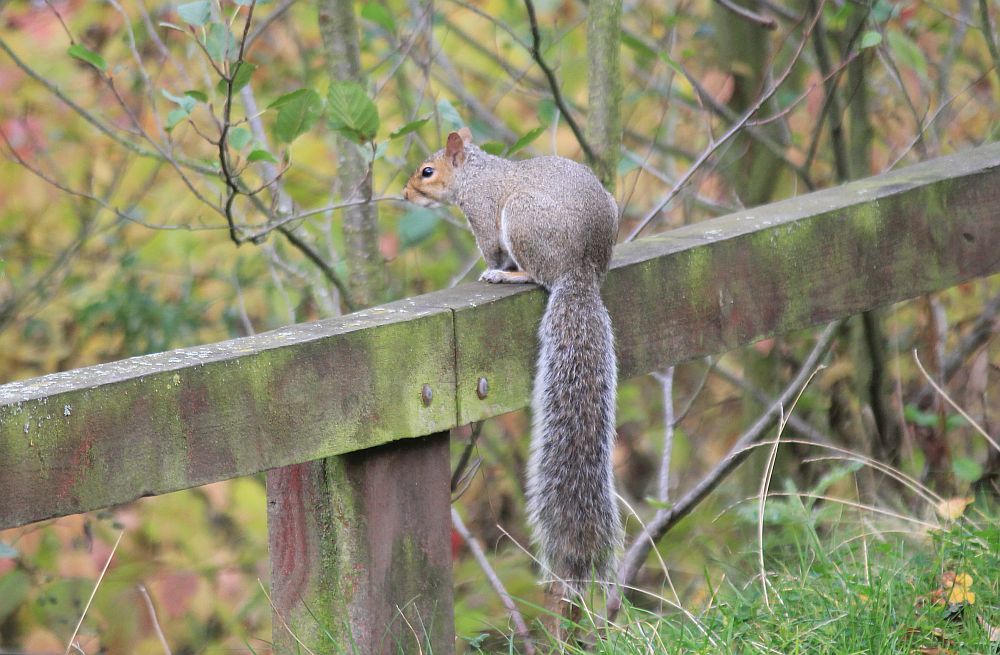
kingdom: Animalia
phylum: Chordata
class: Mammalia
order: Rodentia
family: Sciuridae
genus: Sciurus
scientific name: Sciurus carolinensis
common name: Eastern gray squirrel
